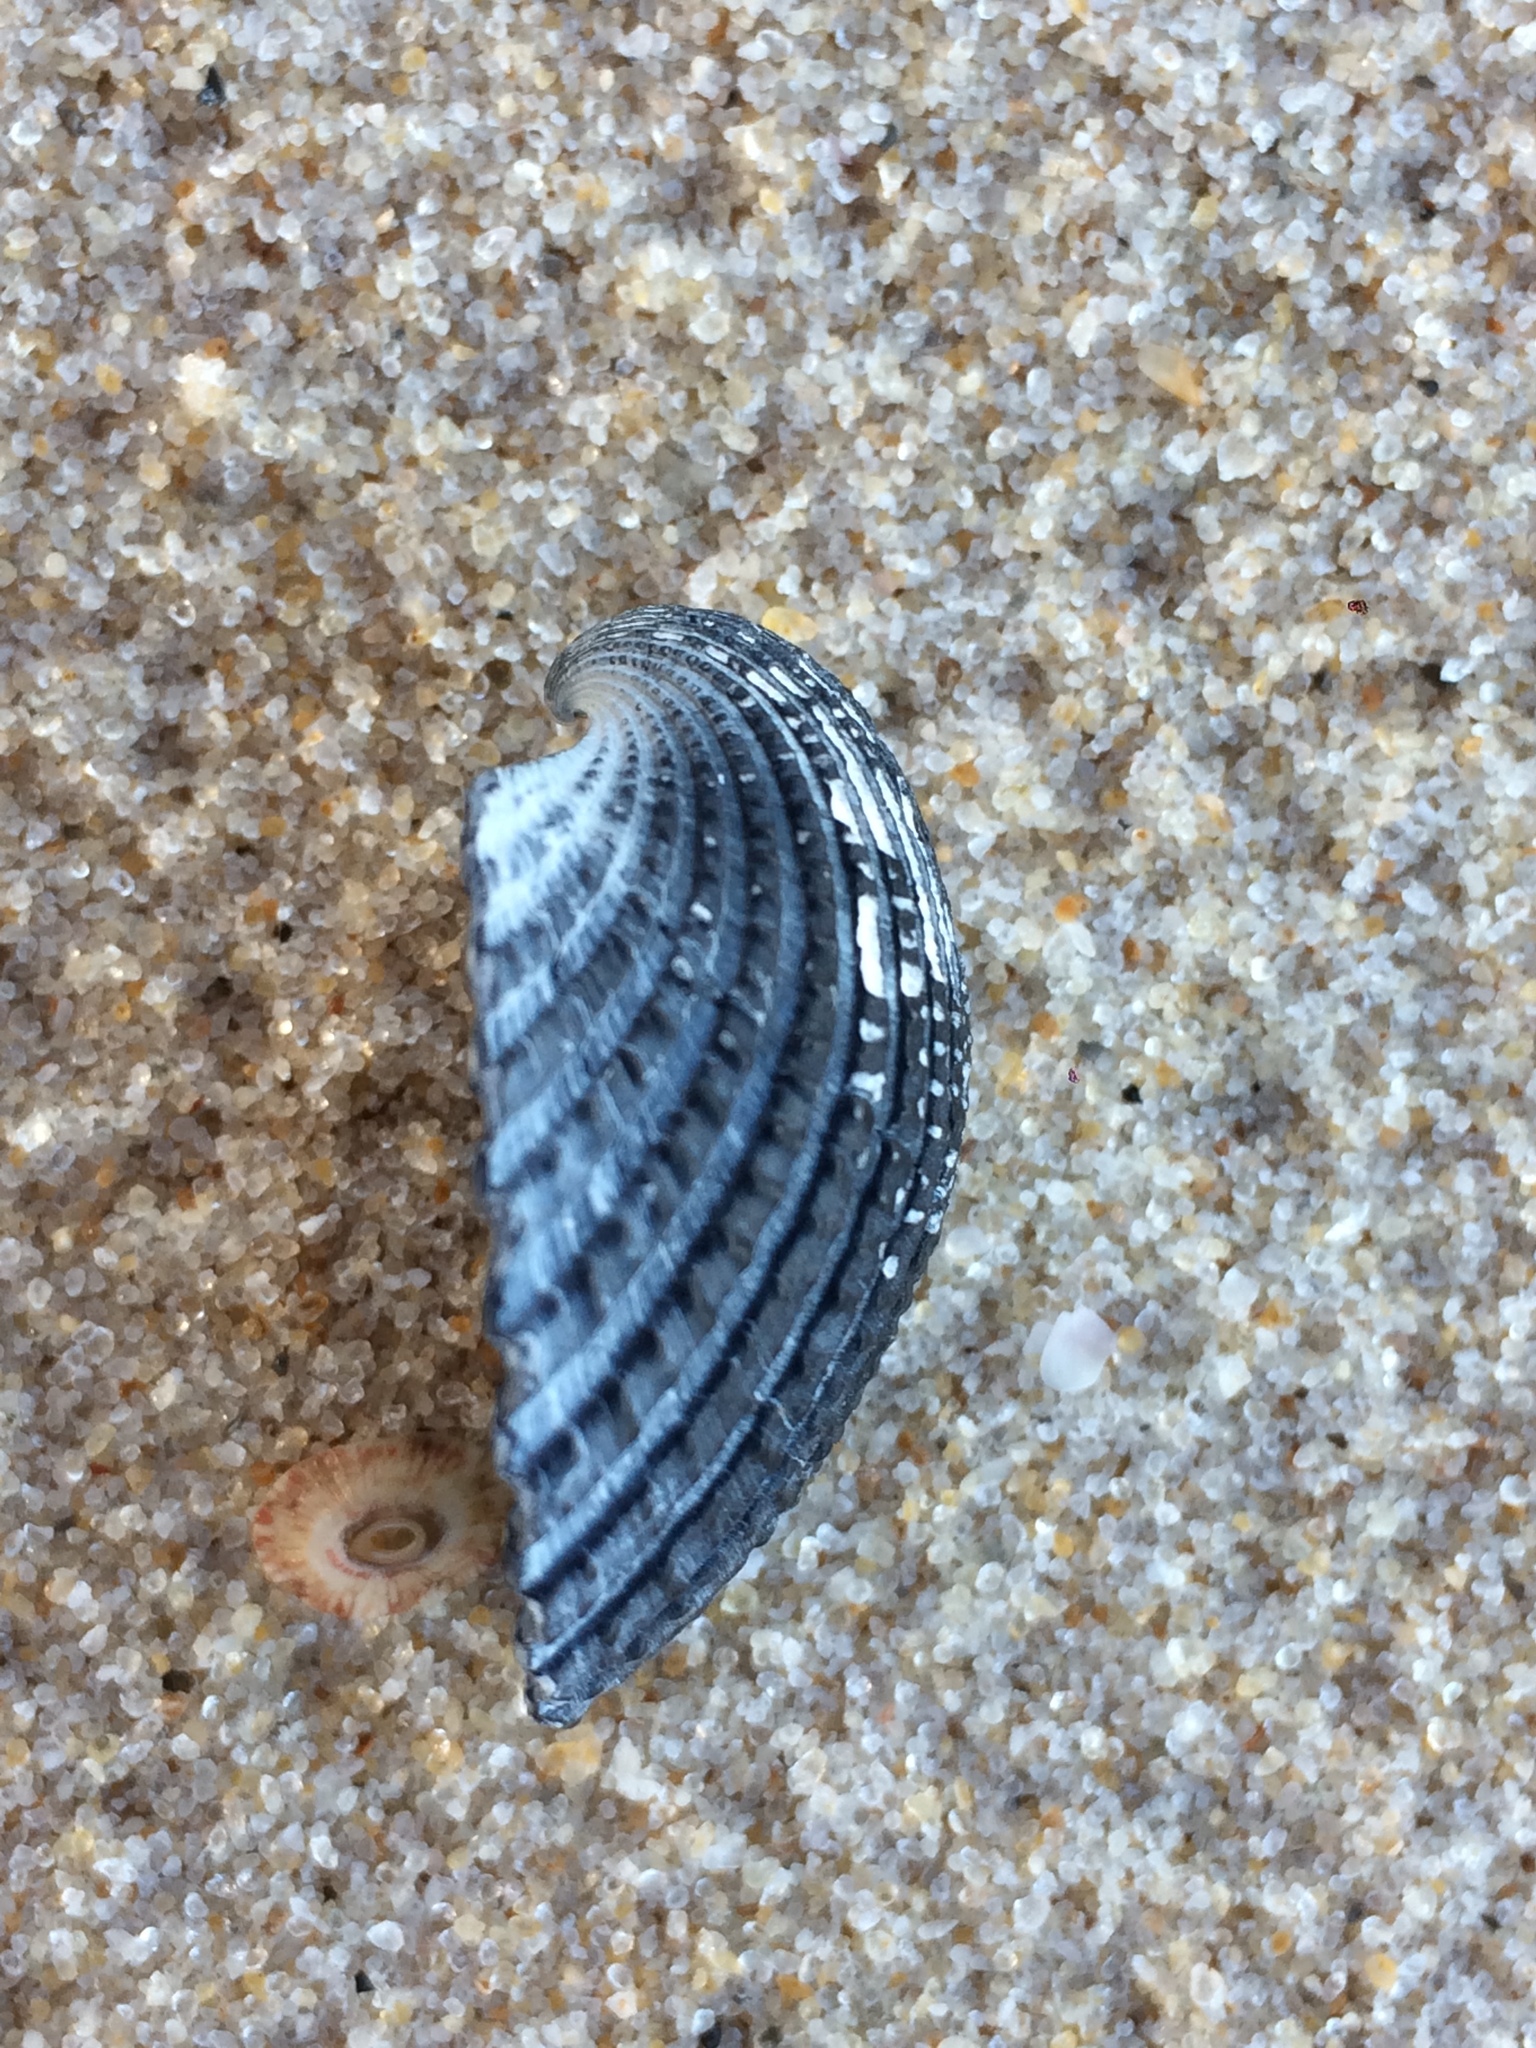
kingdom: Animalia
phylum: Mollusca
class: Bivalvia
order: Arcida
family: Arcidae
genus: Anadara
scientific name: Anadara chemnitzii
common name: Chemnitz's triangular ark
